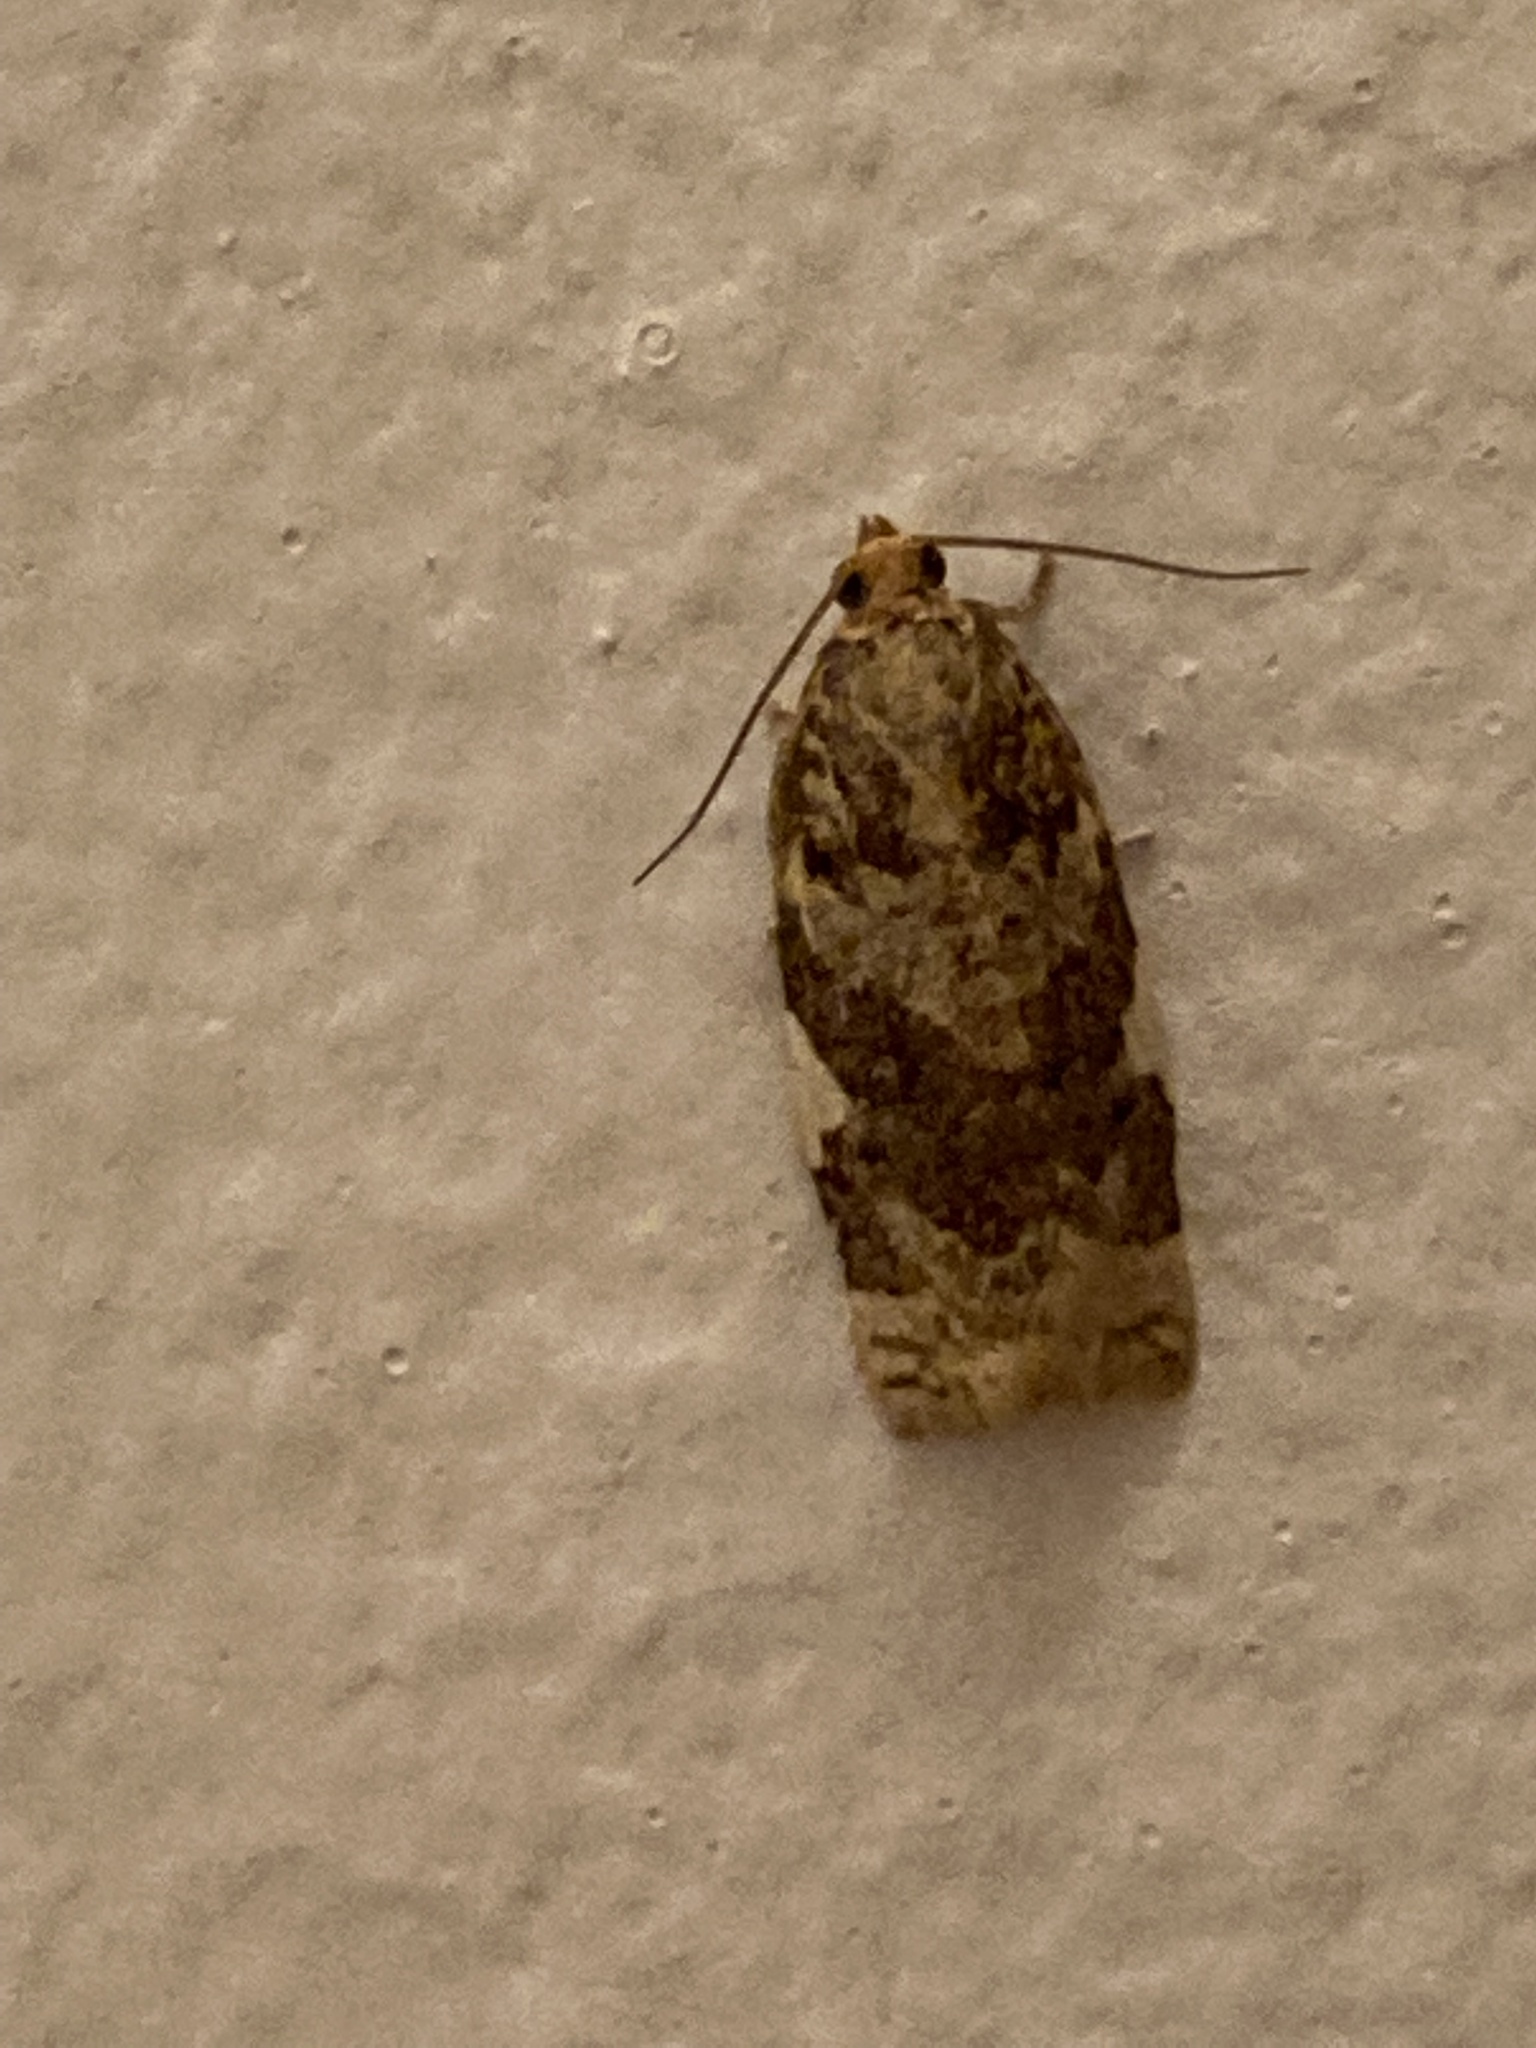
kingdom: Animalia
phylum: Arthropoda
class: Insecta
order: Lepidoptera
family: Tortricidae
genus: Archips
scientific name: Archips cerasivorana
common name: Uglynest caterpillar
